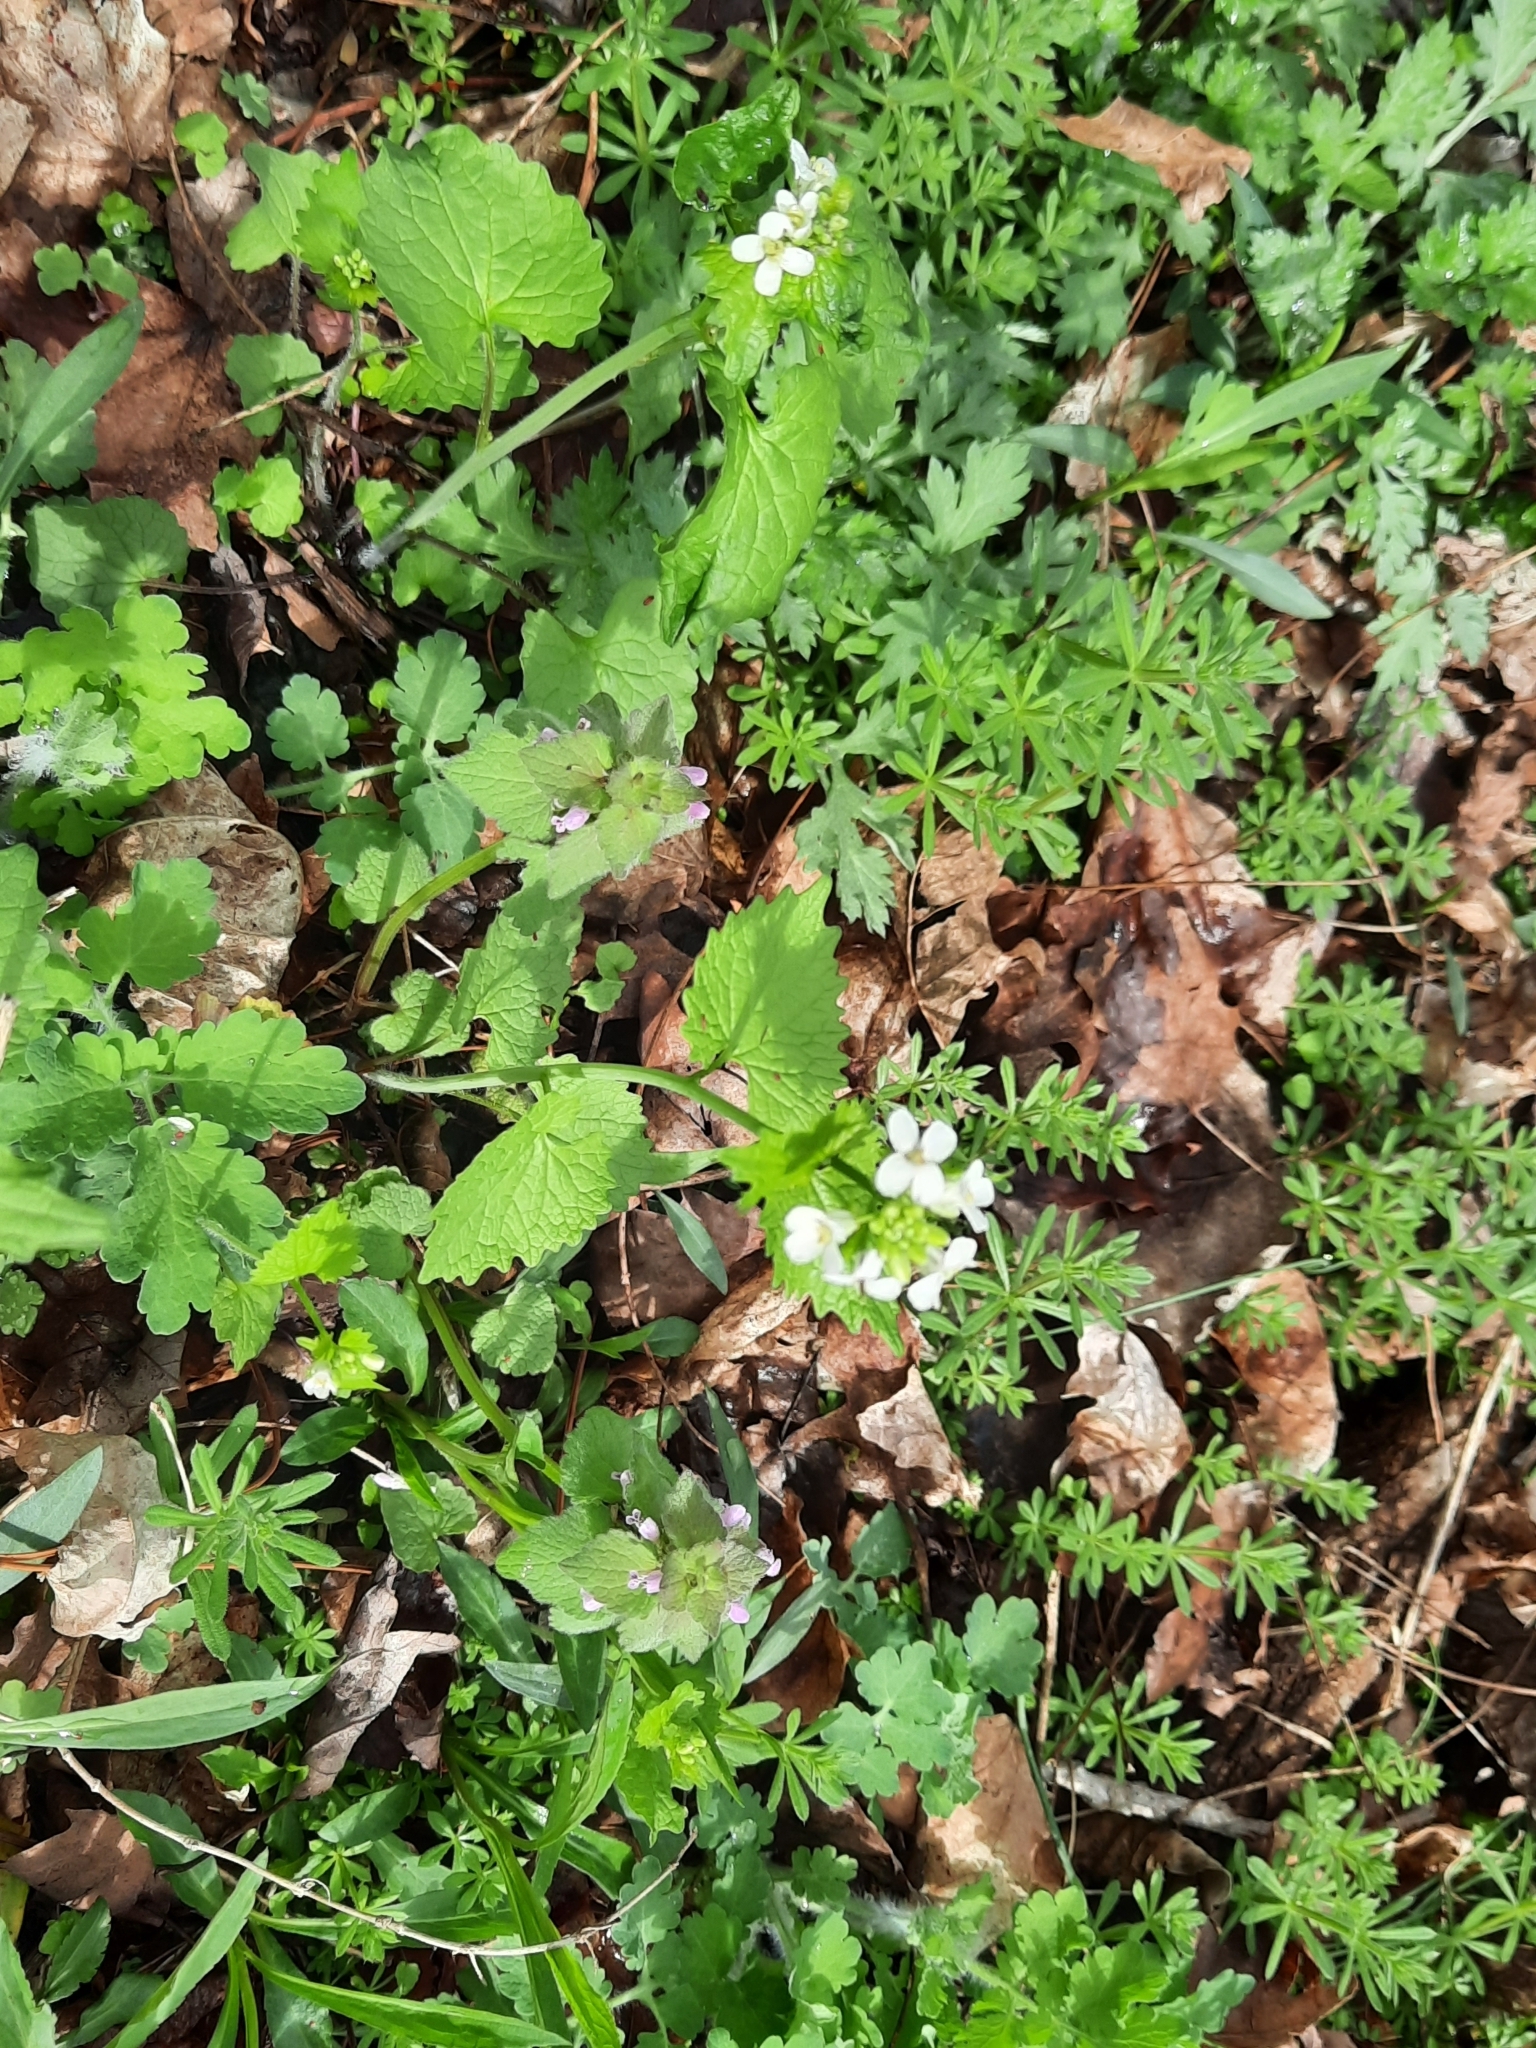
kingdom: Plantae
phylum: Tracheophyta
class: Magnoliopsida
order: Brassicales
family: Brassicaceae
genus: Alliaria
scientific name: Alliaria petiolata
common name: Garlic mustard
